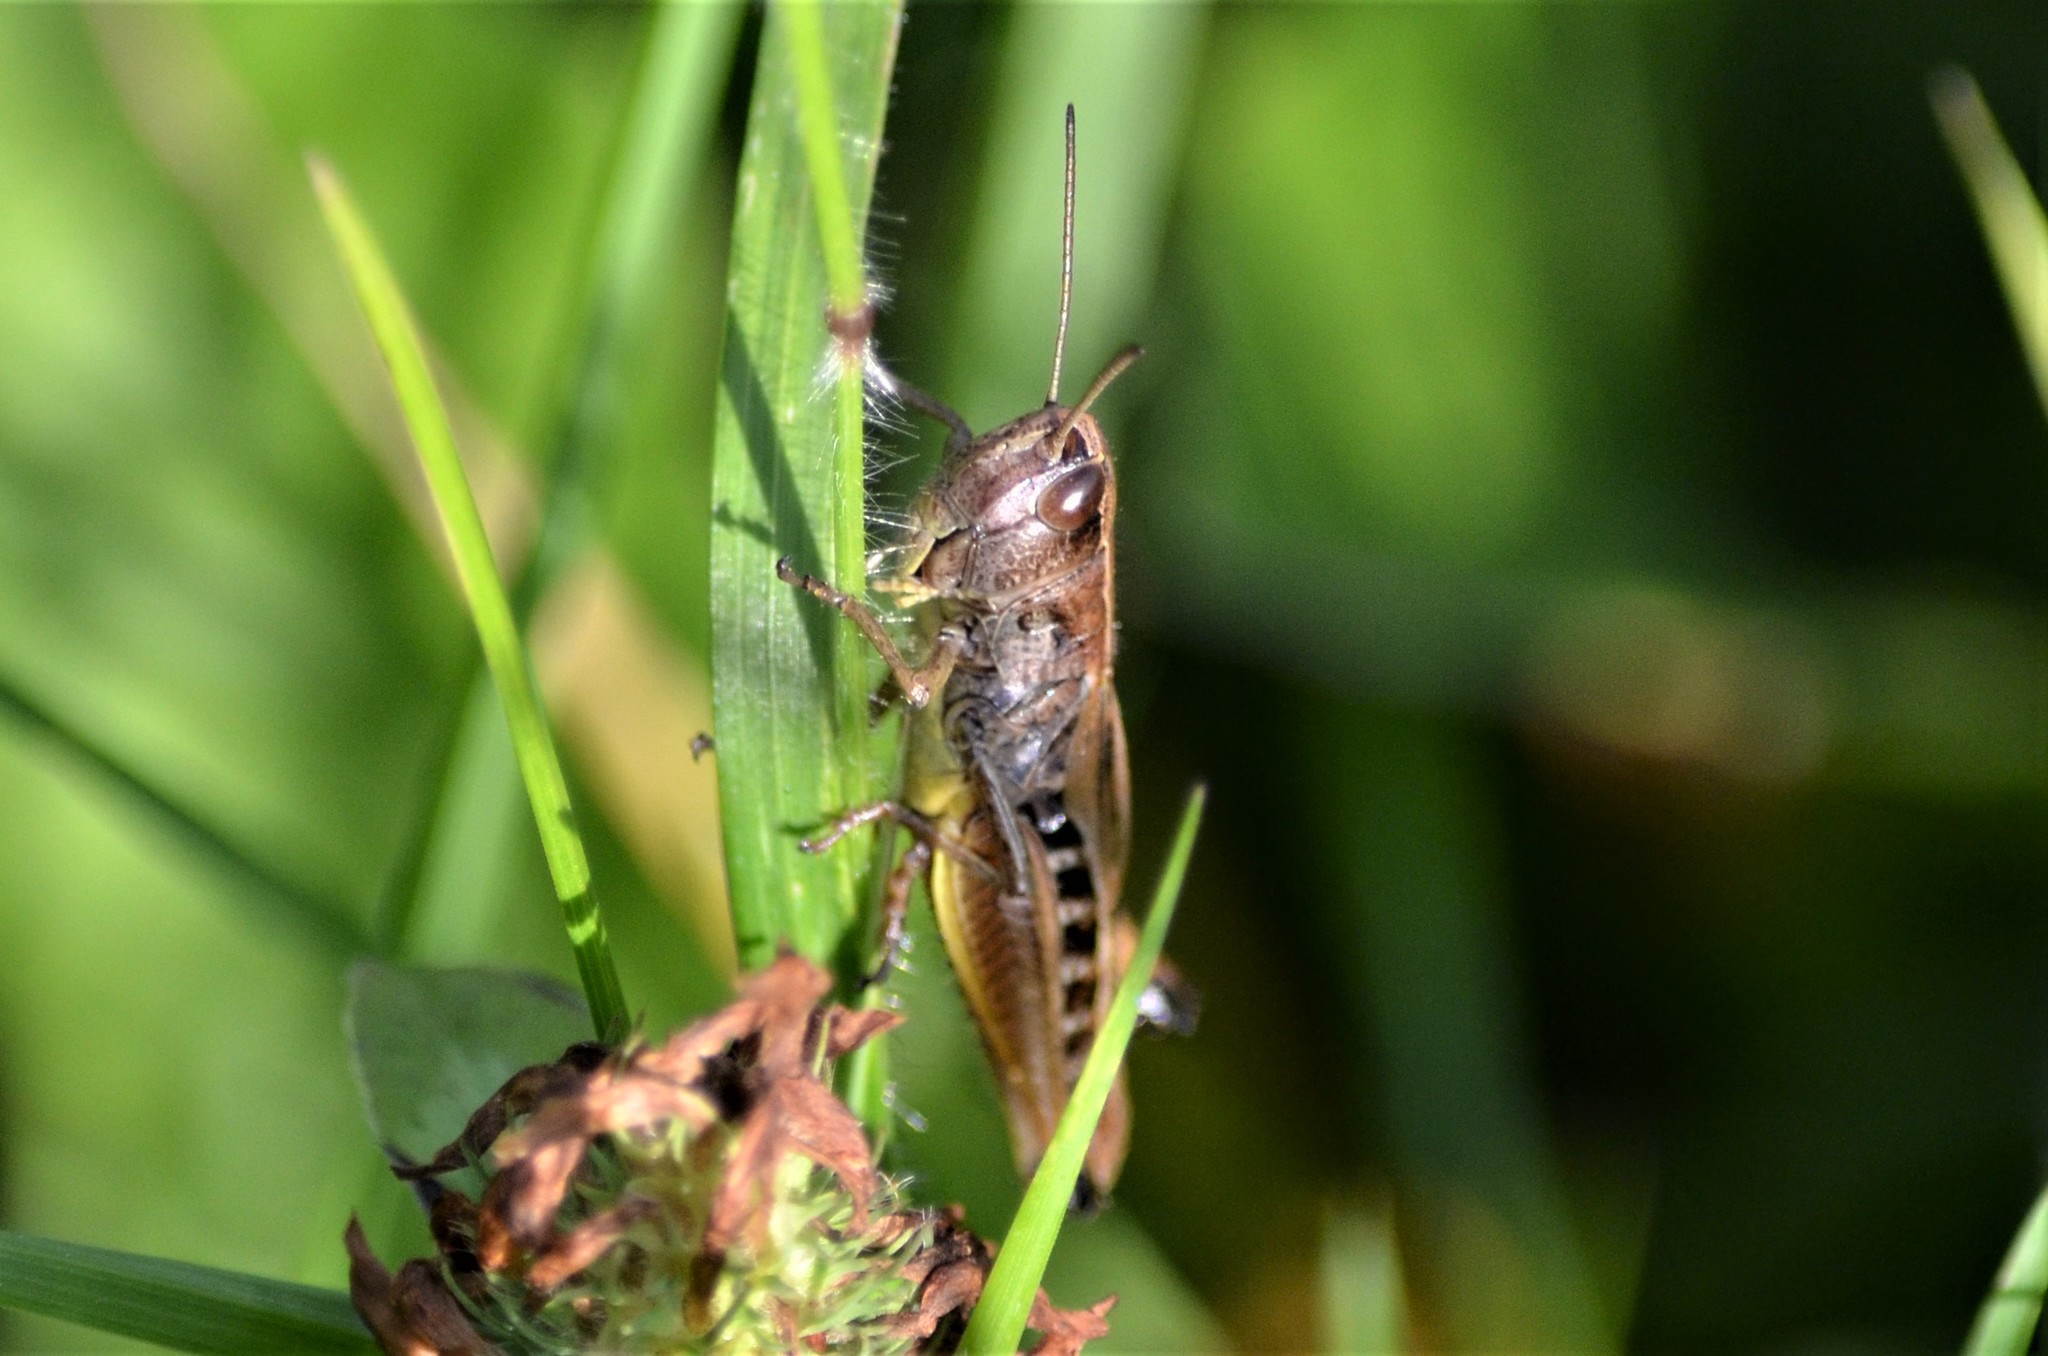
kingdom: Animalia
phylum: Arthropoda
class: Insecta
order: Orthoptera
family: Acrididae
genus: Pseudochorthippus
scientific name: Pseudochorthippus parallelus
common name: Meadow grasshopper
